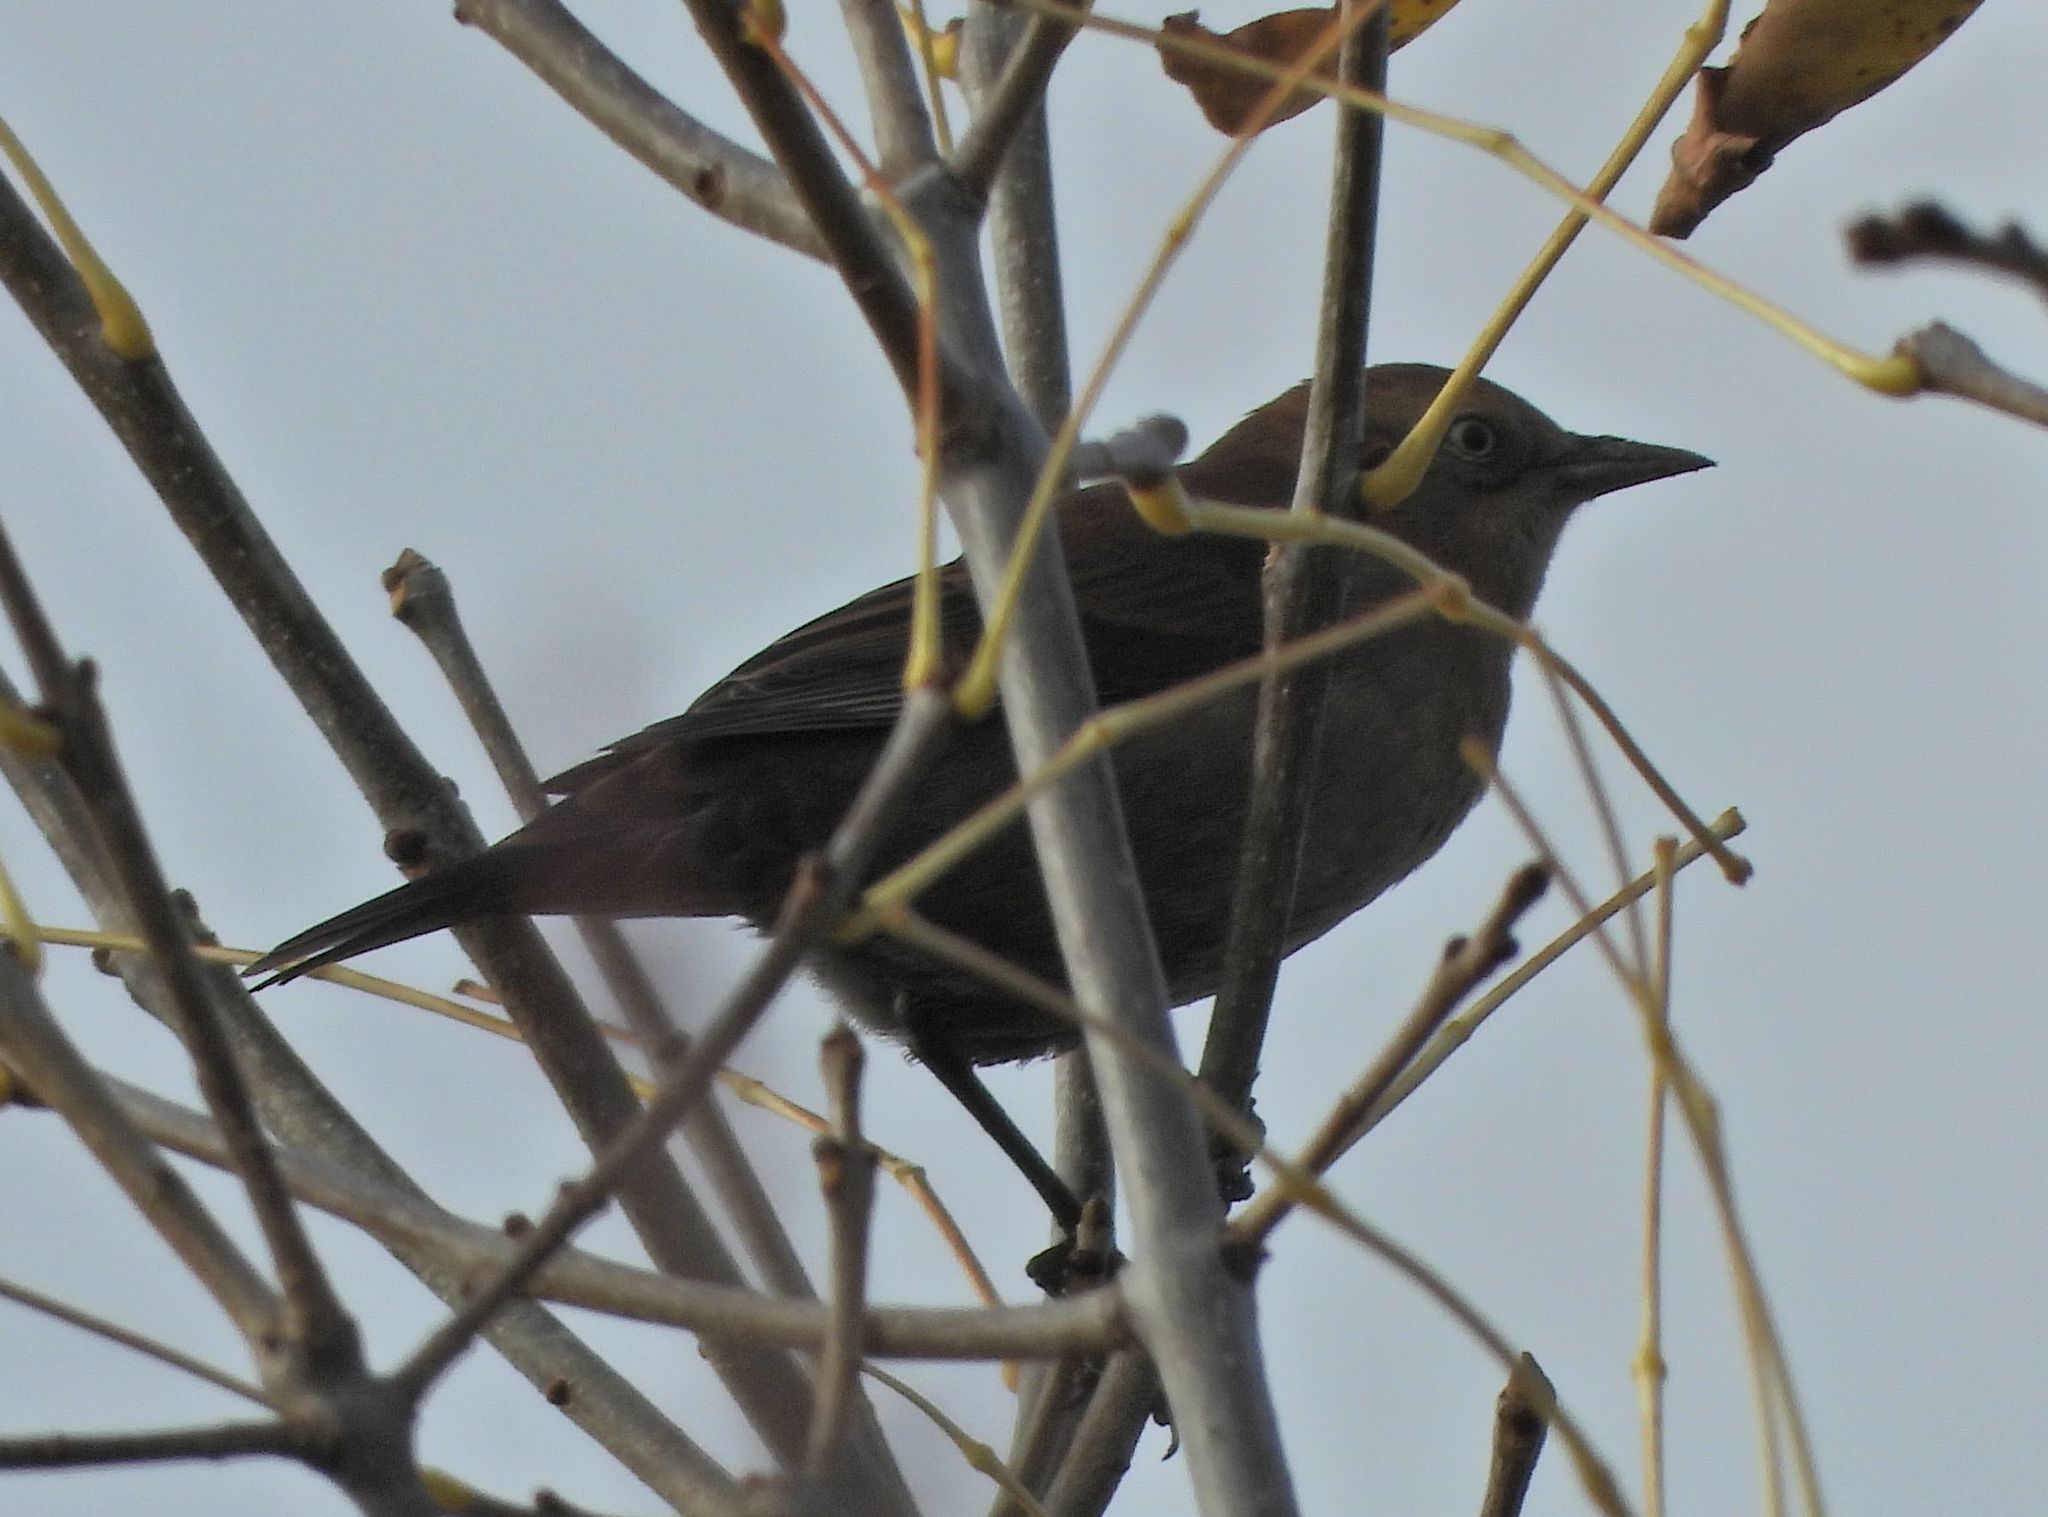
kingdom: Animalia
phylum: Chordata
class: Aves
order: Passeriformes
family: Icteridae
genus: Euphagus
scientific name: Euphagus carolinus
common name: Rusty blackbird
